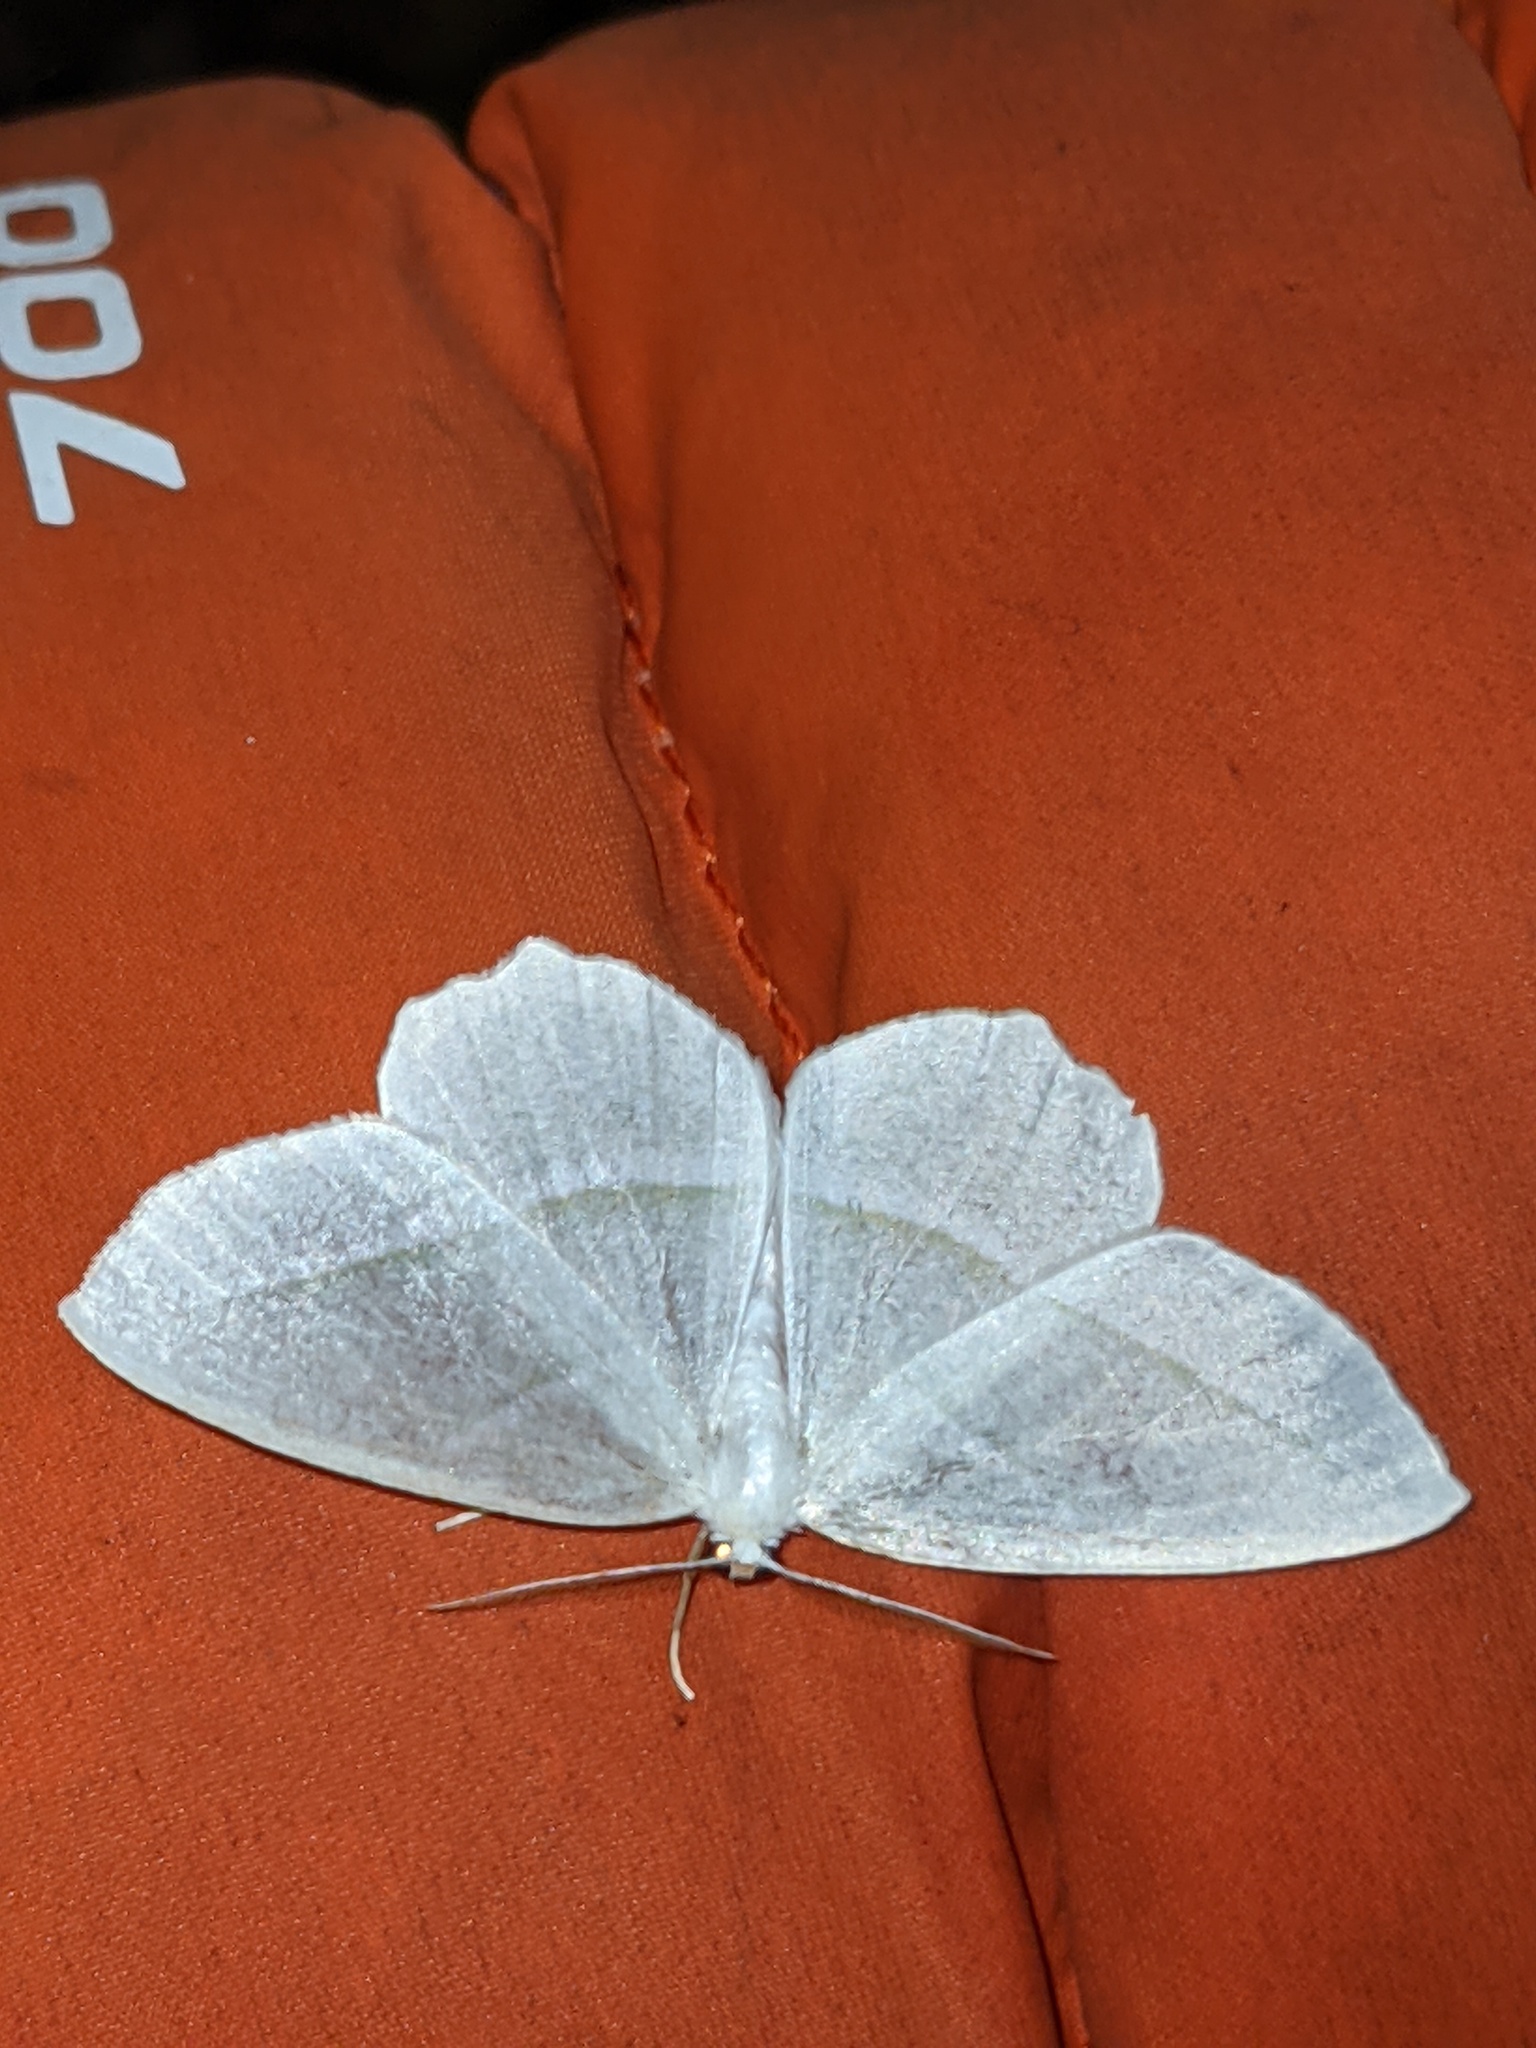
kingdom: Animalia
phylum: Arthropoda
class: Insecta
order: Lepidoptera
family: Geometridae
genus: Campaea
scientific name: Campaea perlata
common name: Fringed looper
